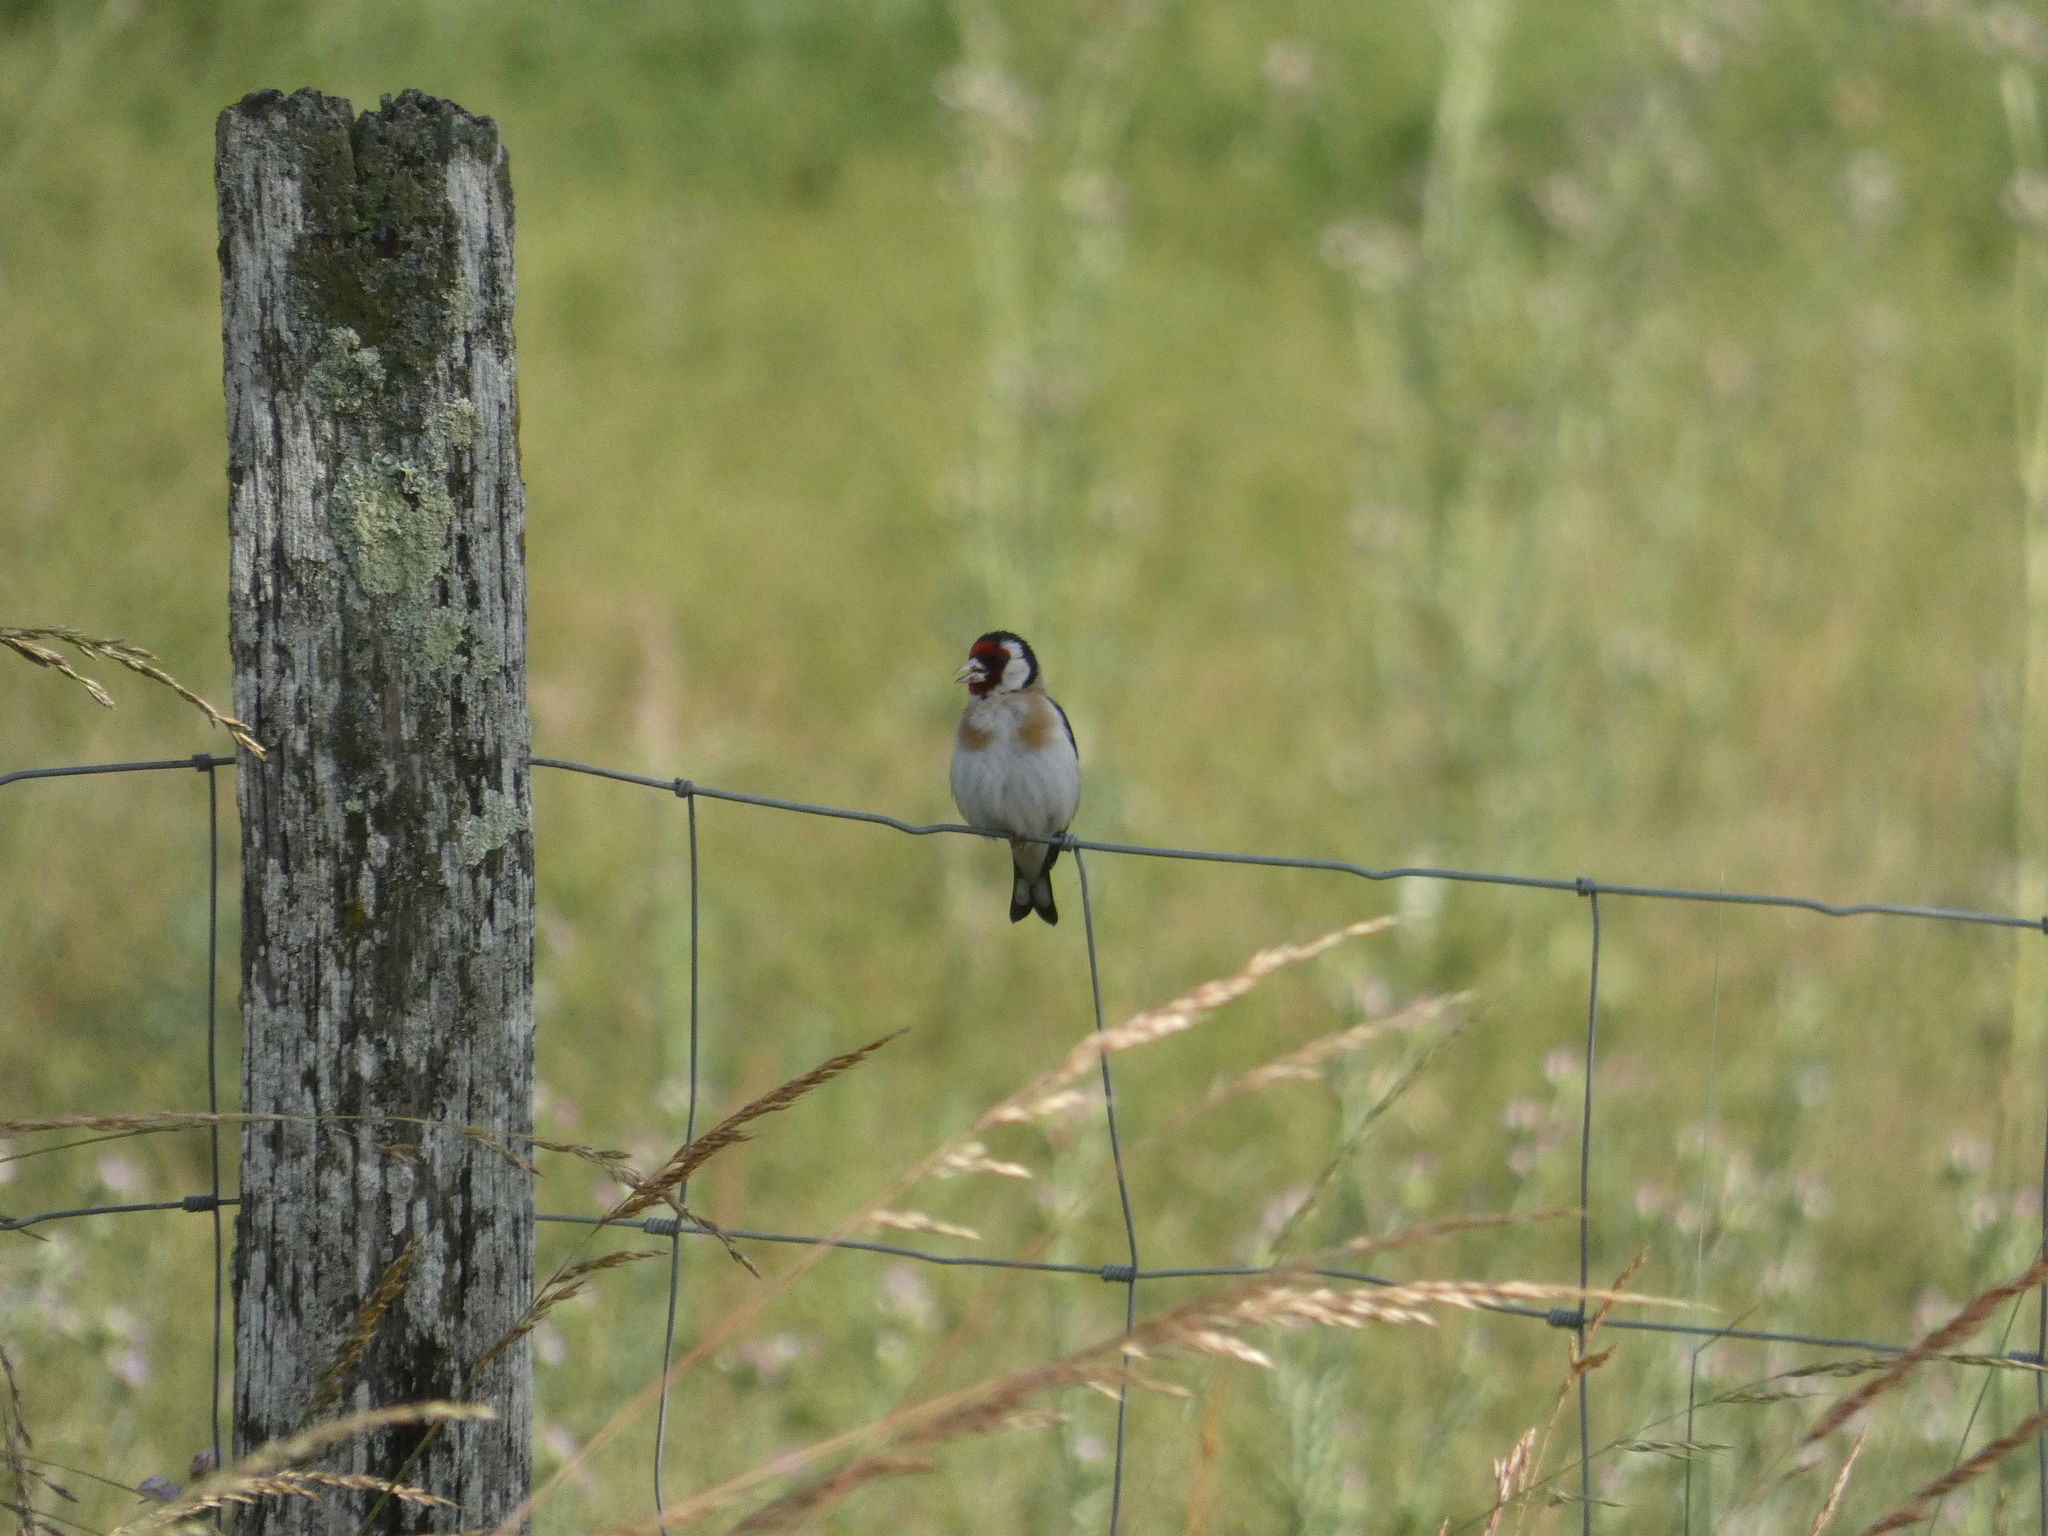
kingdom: Animalia
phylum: Chordata
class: Aves
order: Passeriformes
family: Fringillidae
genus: Carduelis
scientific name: Carduelis carduelis
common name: European goldfinch
